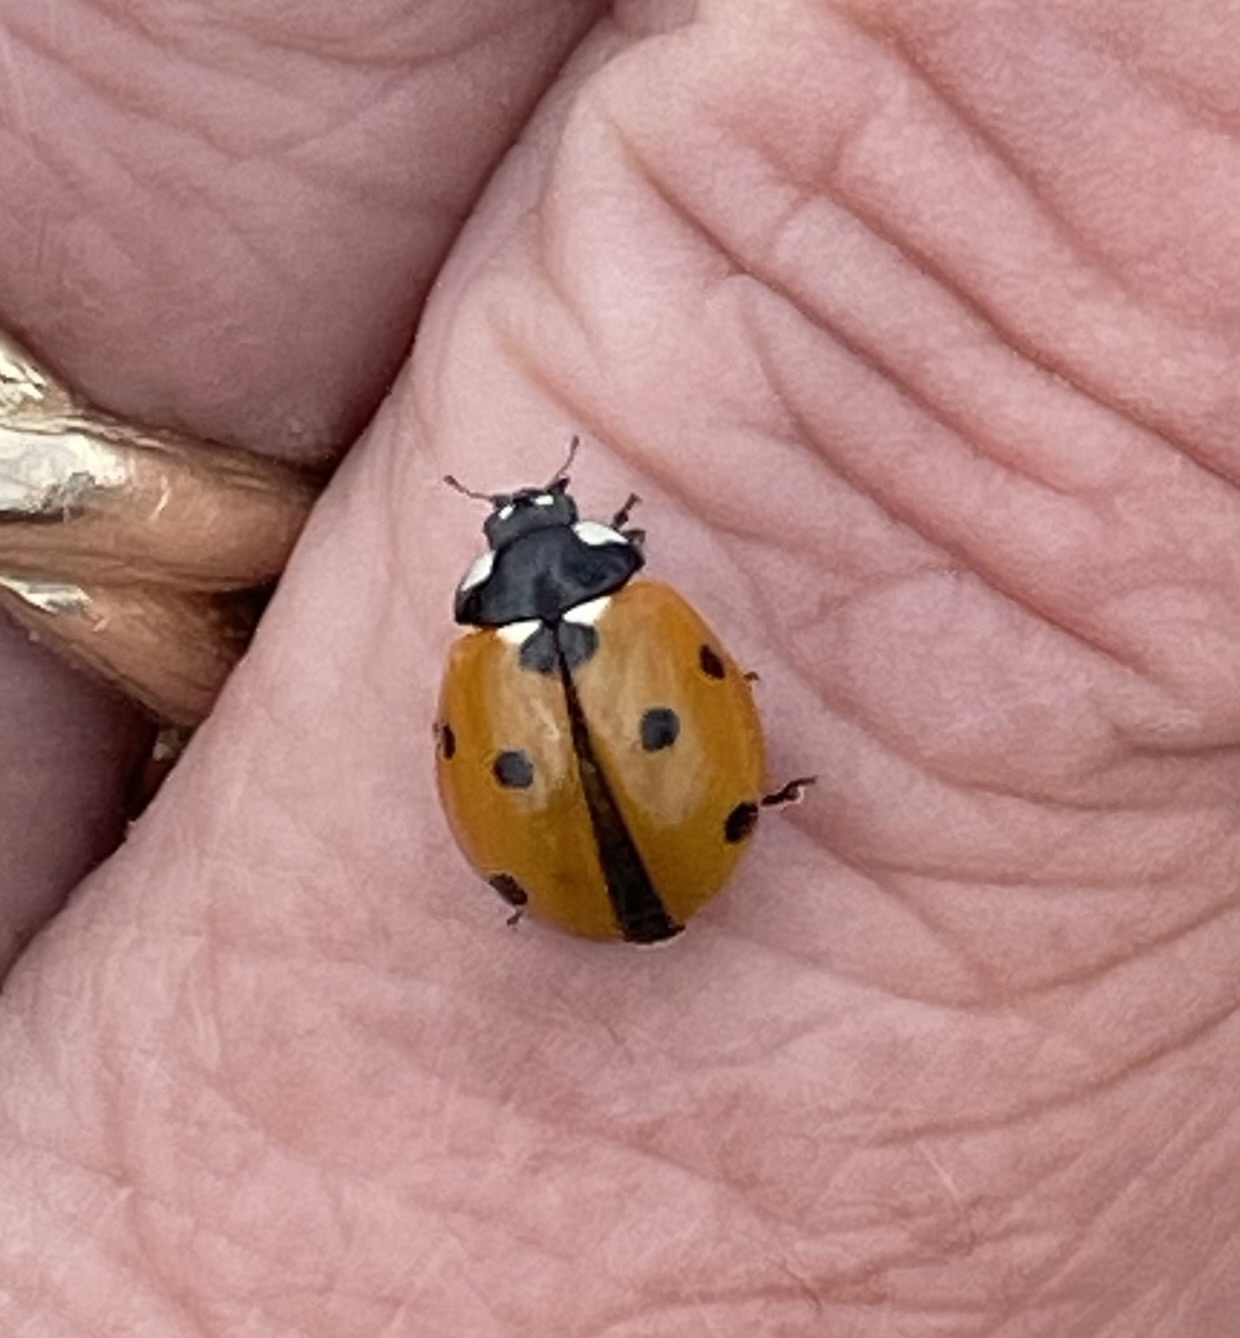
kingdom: Animalia
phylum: Arthropoda
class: Insecta
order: Coleoptera
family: Coccinellidae
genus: Coccinella
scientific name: Coccinella septempunctata
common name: Sevenspotted lady beetle
